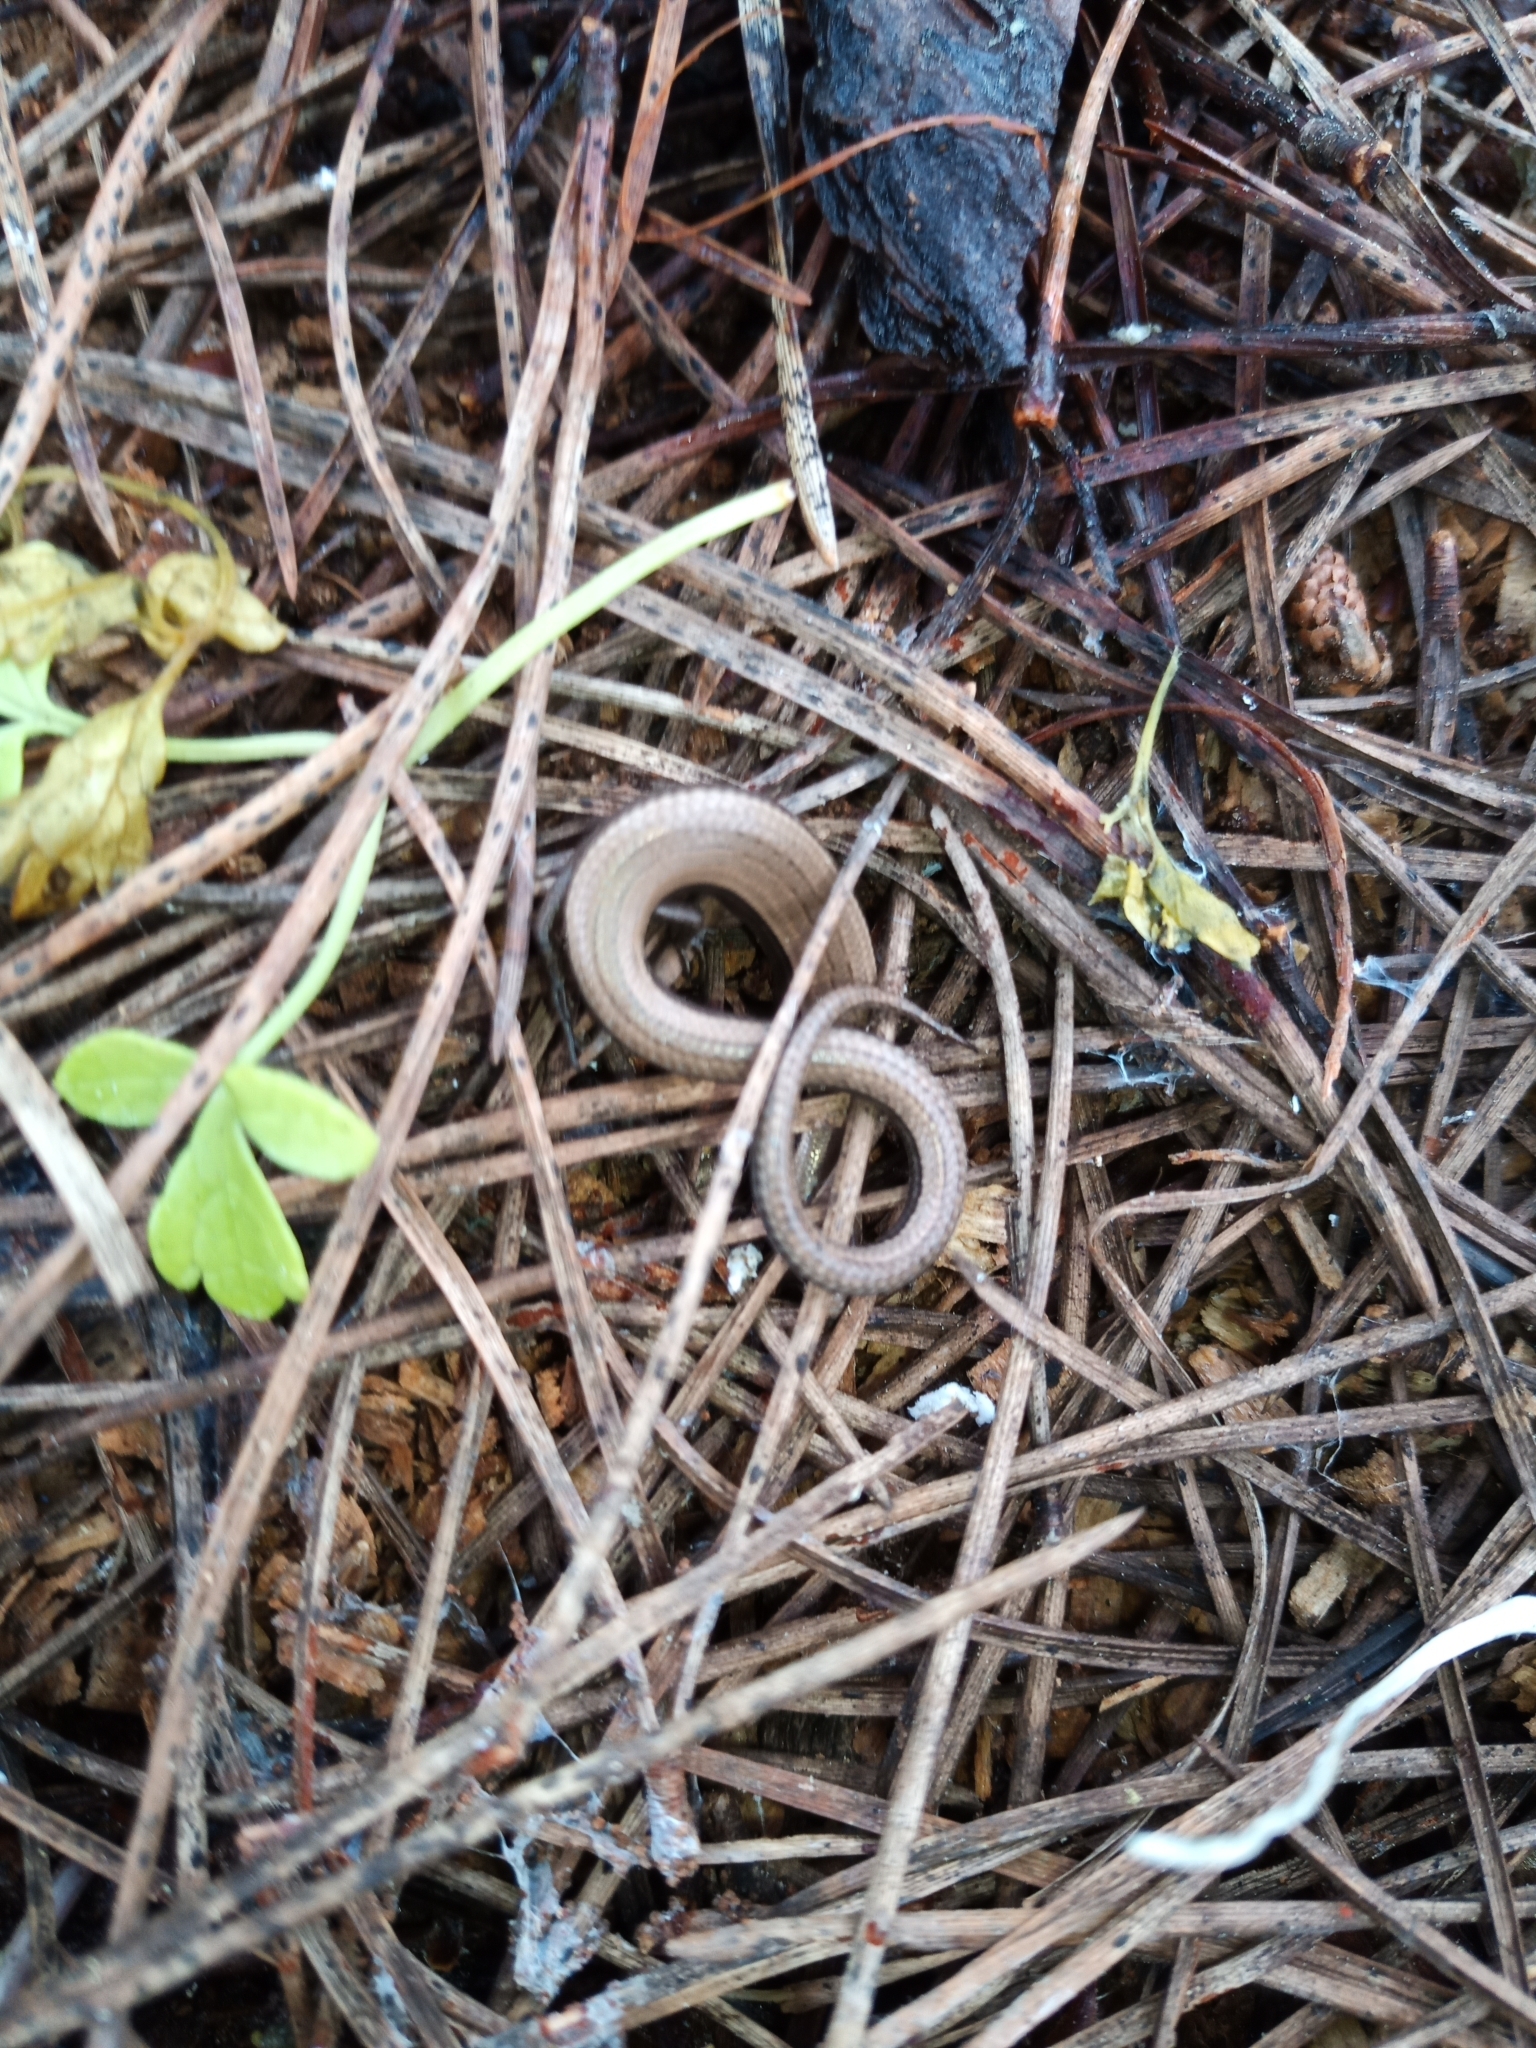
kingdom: Animalia
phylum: Chordata
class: Squamata
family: Scincidae
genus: Ablepharus
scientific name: Ablepharus kitaibelii
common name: Juniper skink
